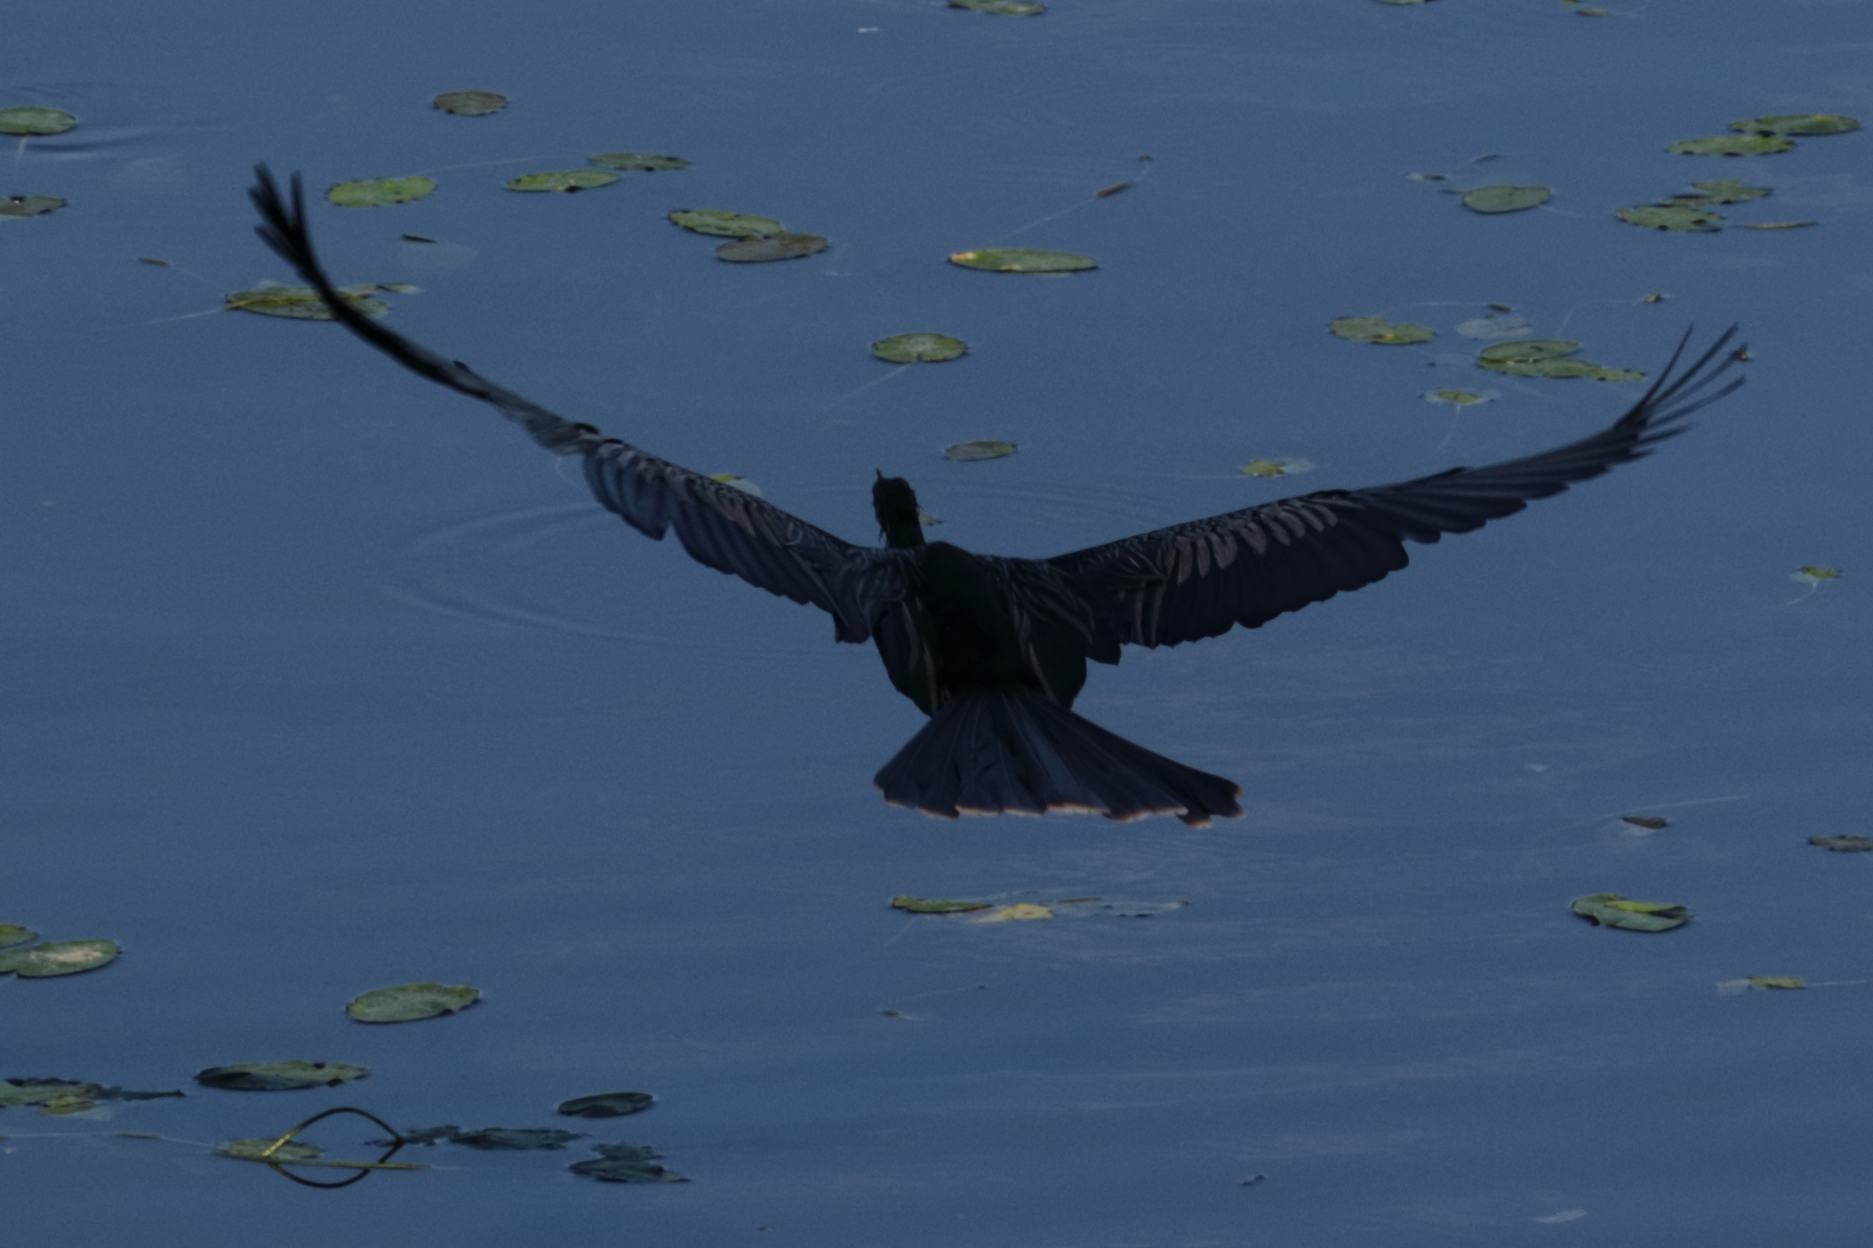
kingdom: Animalia
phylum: Chordata
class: Aves
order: Suliformes
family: Anhingidae
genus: Anhinga
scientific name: Anhinga anhinga
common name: Anhinga
